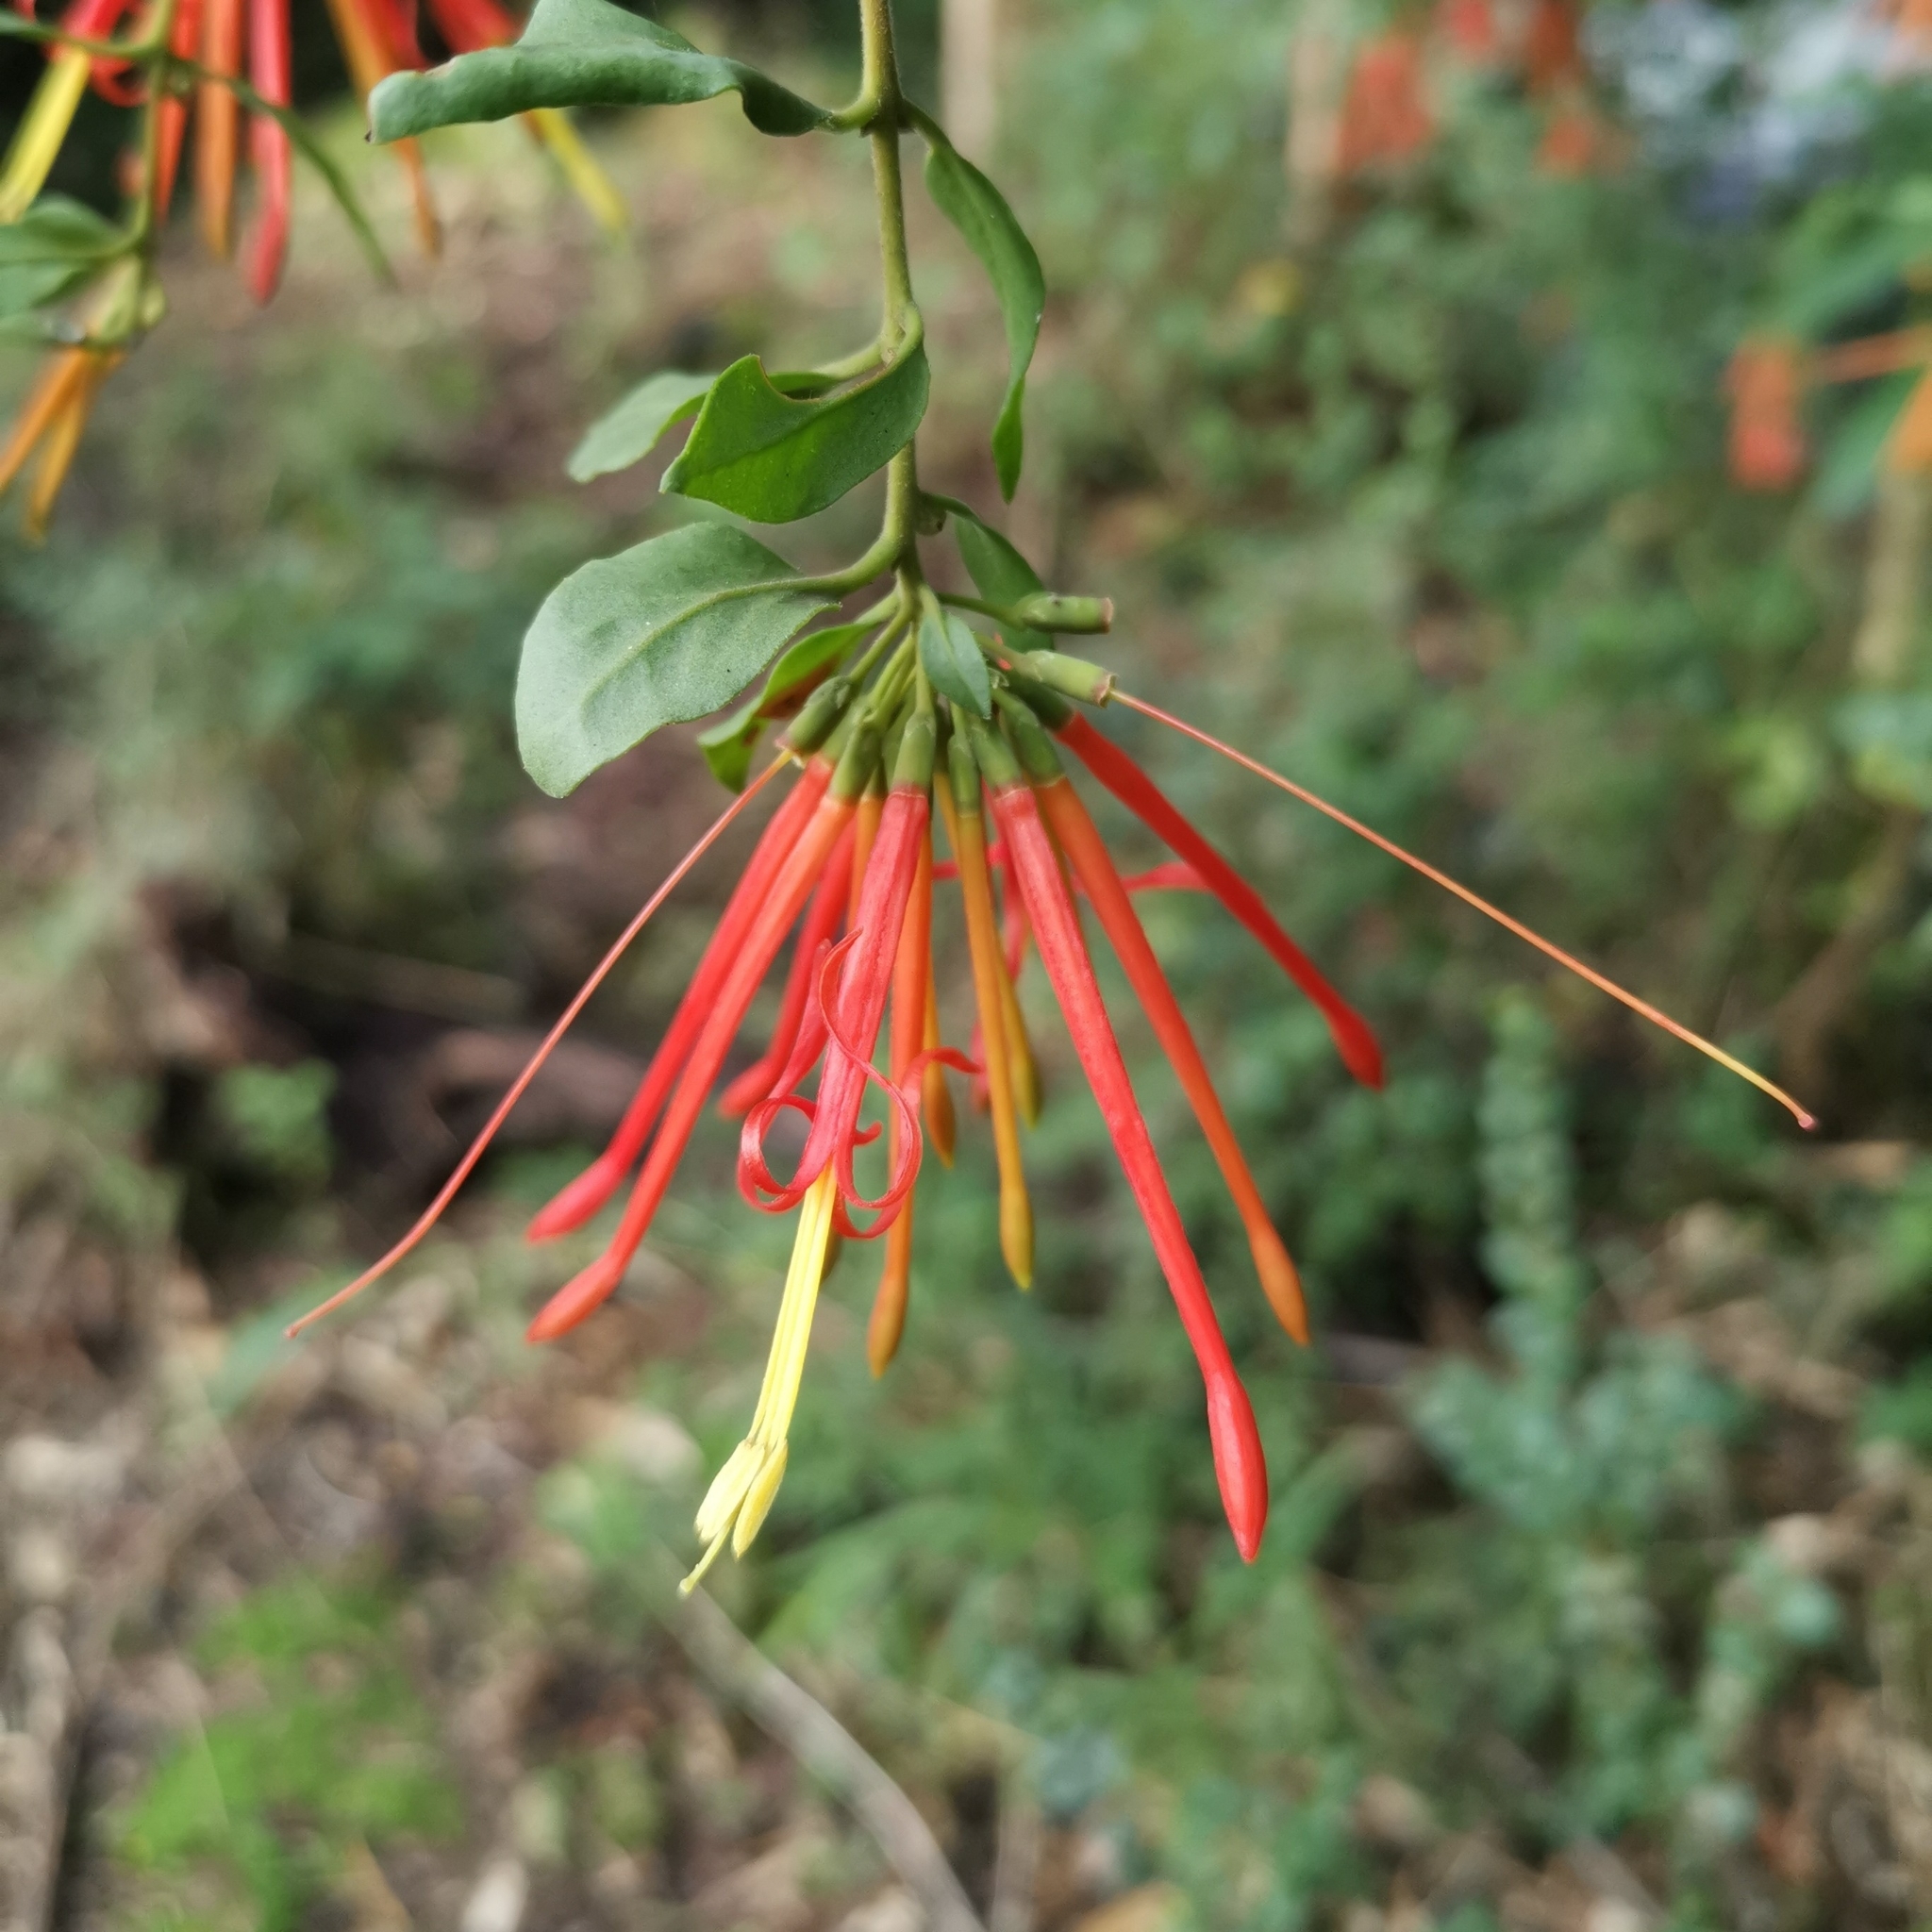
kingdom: Plantae
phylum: Tracheophyta
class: Magnoliopsida
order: Santalales
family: Loranthaceae
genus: Tristerix
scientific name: Tristerix corymbosus
